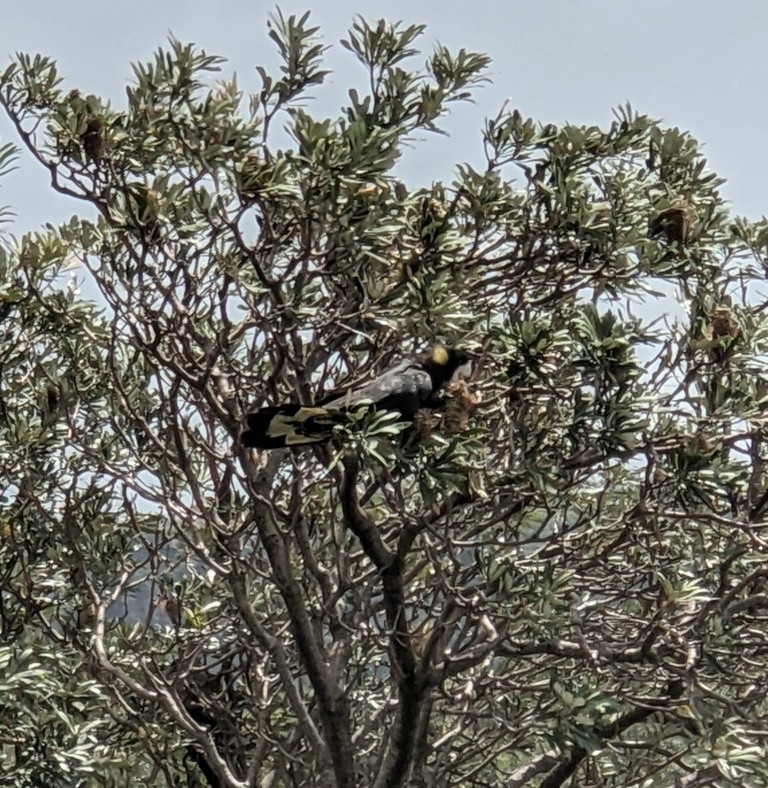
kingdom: Animalia
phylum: Chordata
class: Aves
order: Psittaciformes
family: Cacatuidae
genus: Zanda
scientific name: Zanda funerea
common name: Yellow-tailed black-cockatoo
